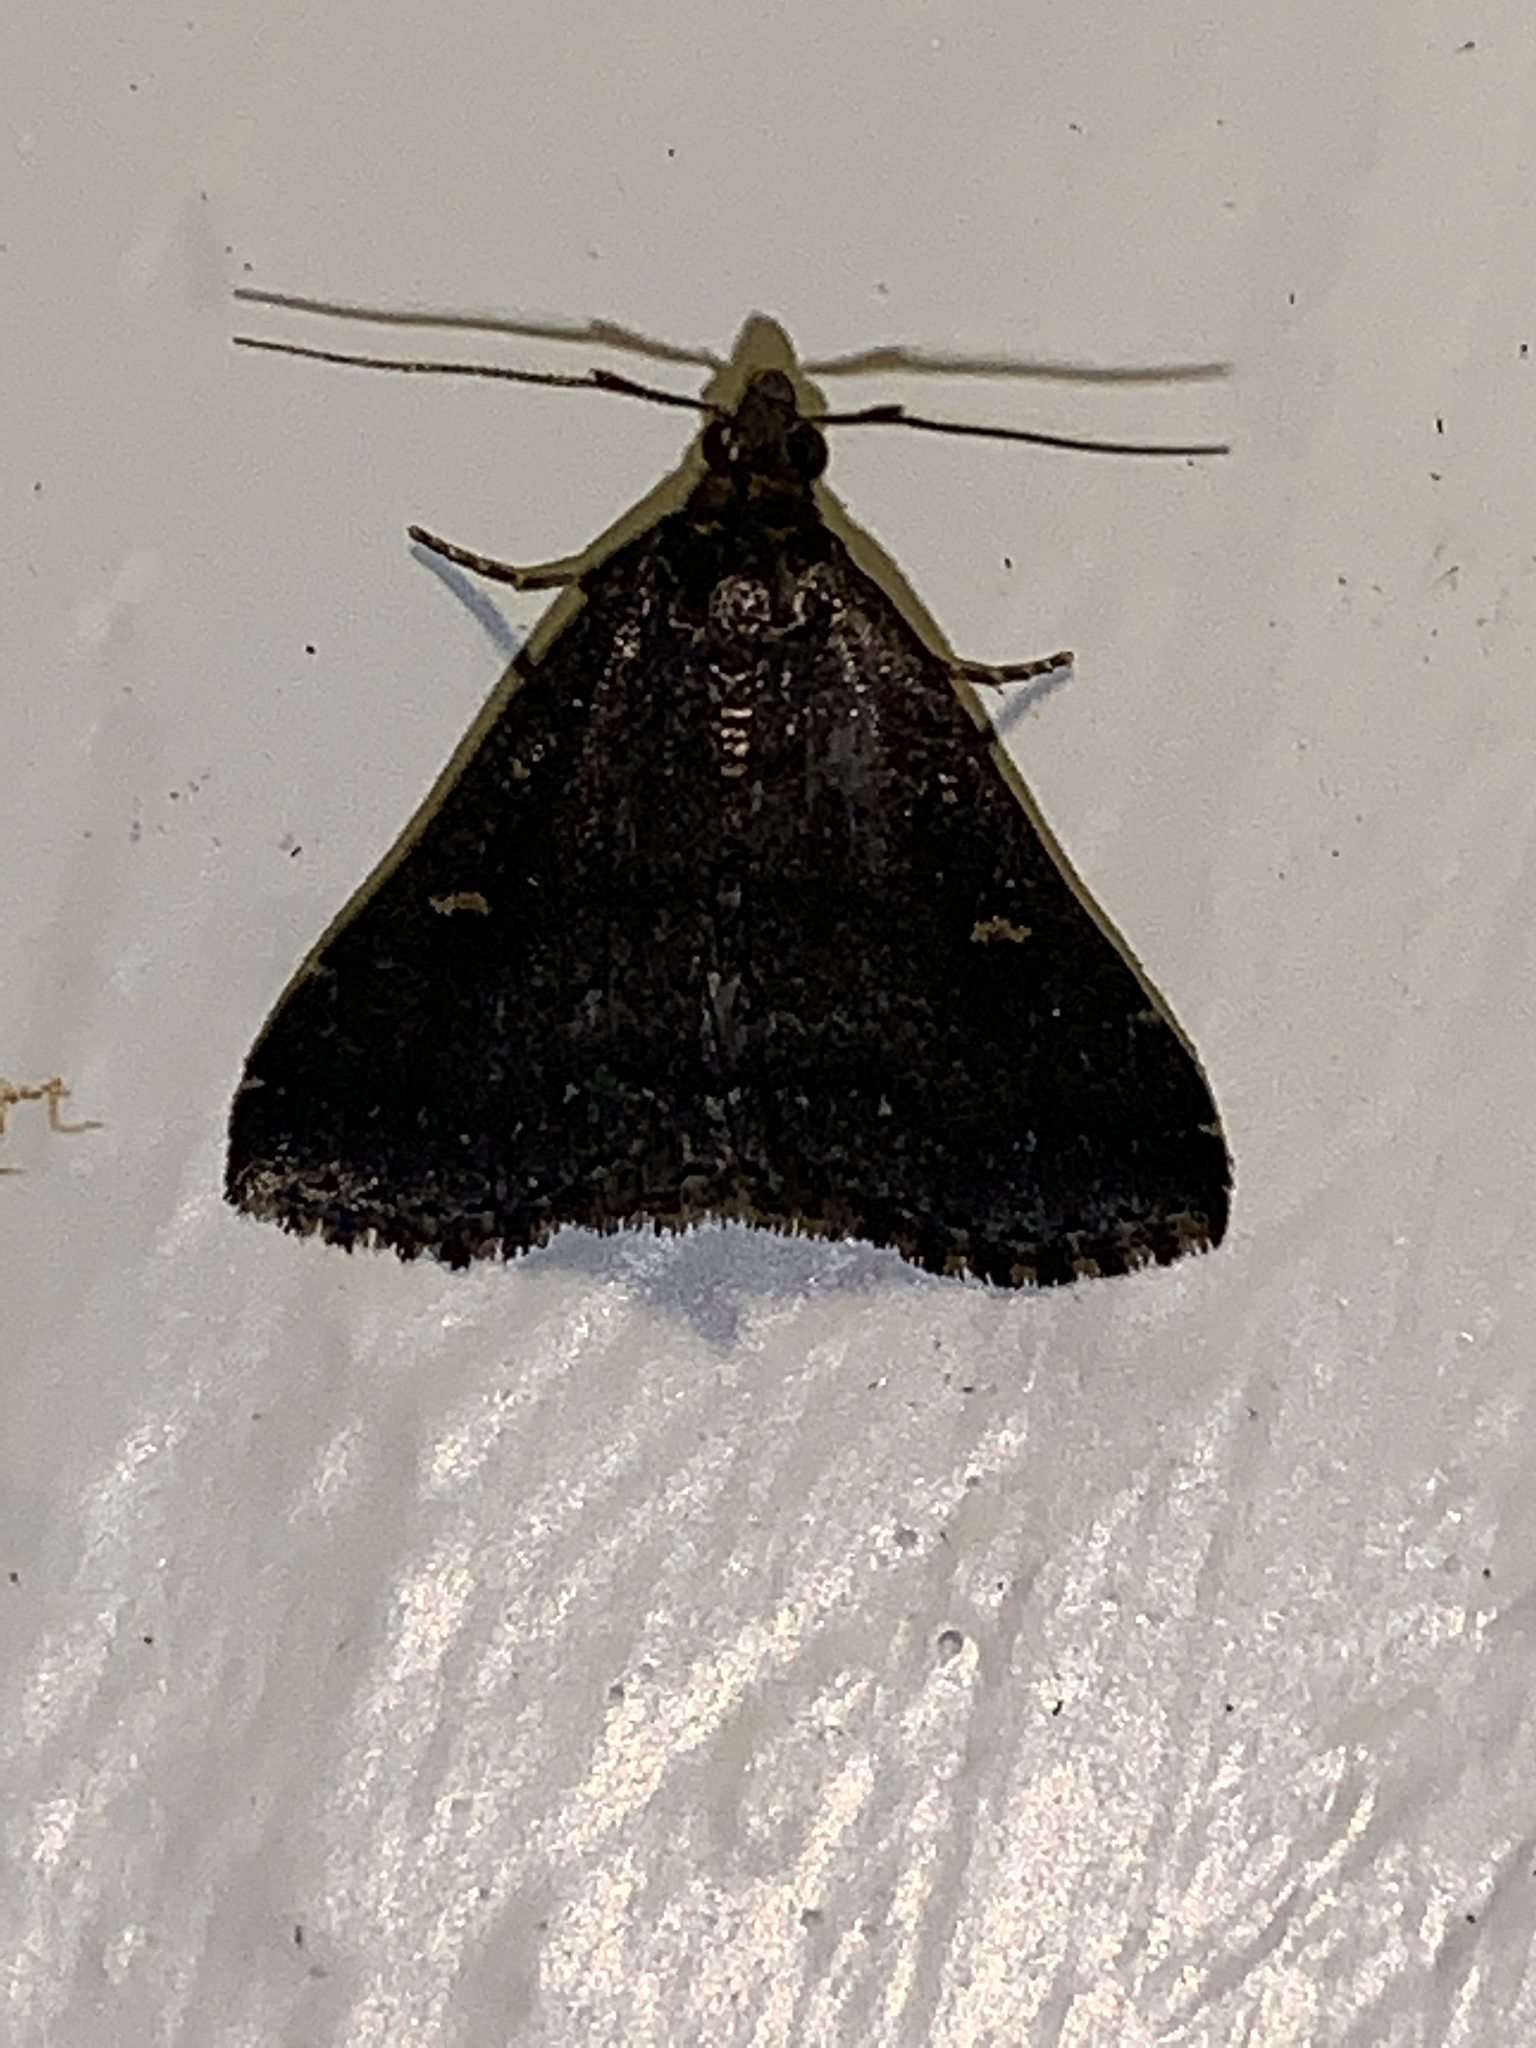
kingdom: Animalia
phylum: Arthropoda
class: Insecta
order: Lepidoptera
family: Erebidae
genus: Tetanolita
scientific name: Tetanolita mynesalis
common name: Smoky tetanolita moth
